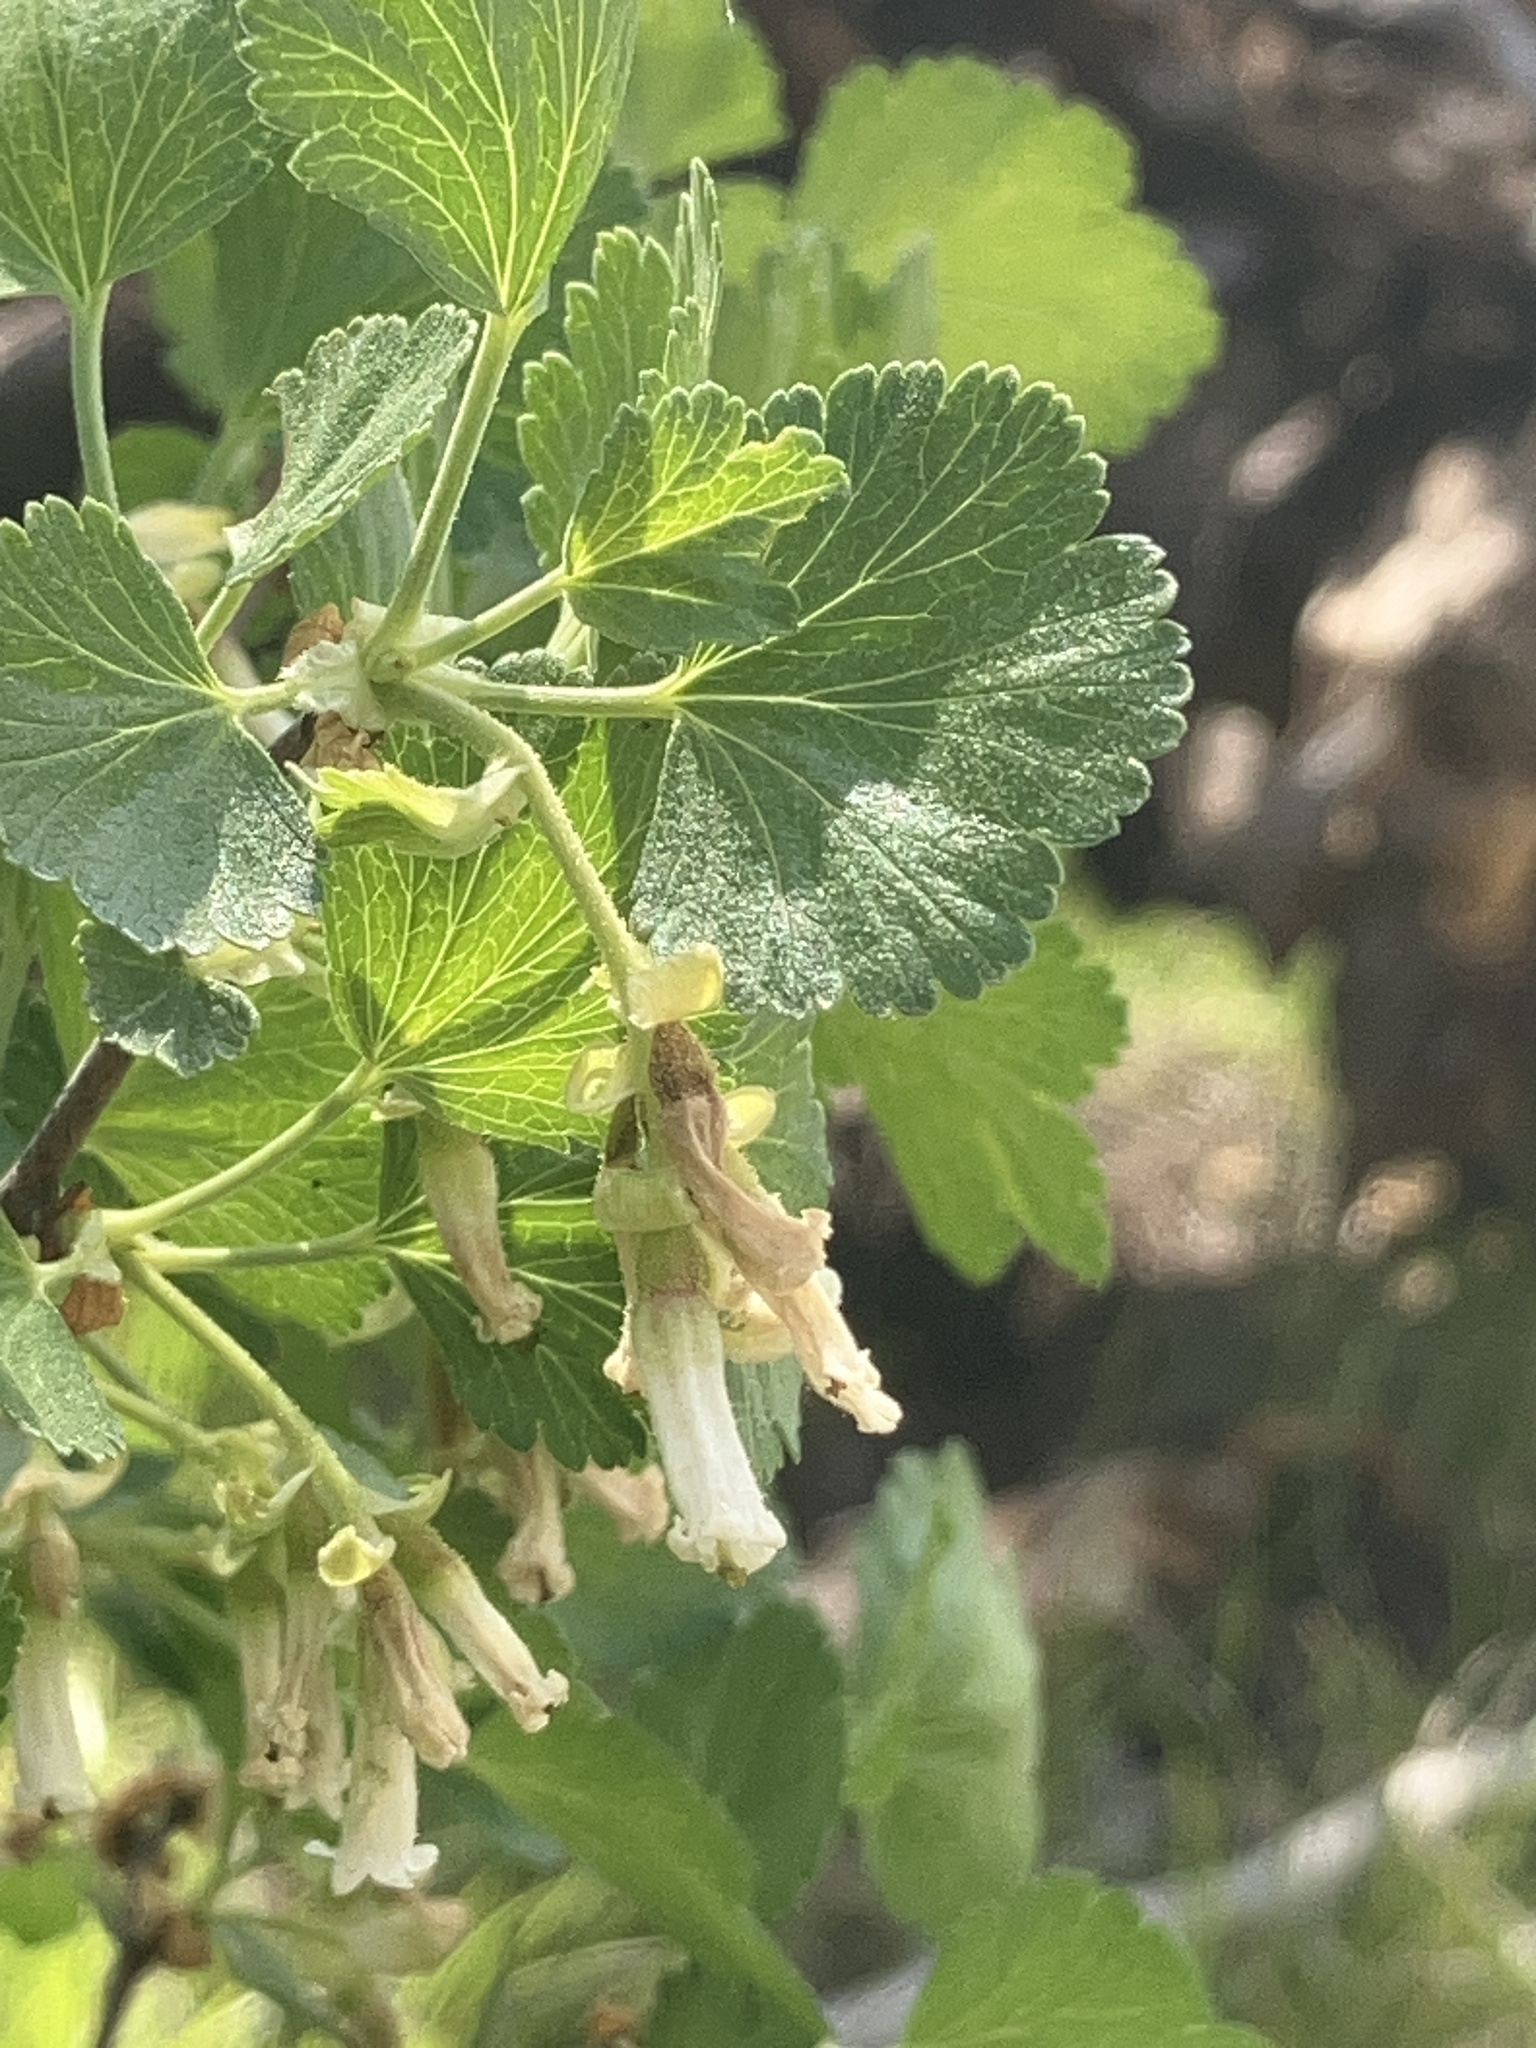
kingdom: Plantae
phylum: Tracheophyta
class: Magnoliopsida
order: Saxifragales
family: Grossulariaceae
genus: Ribes
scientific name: Ribes cereum
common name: Wax currant
